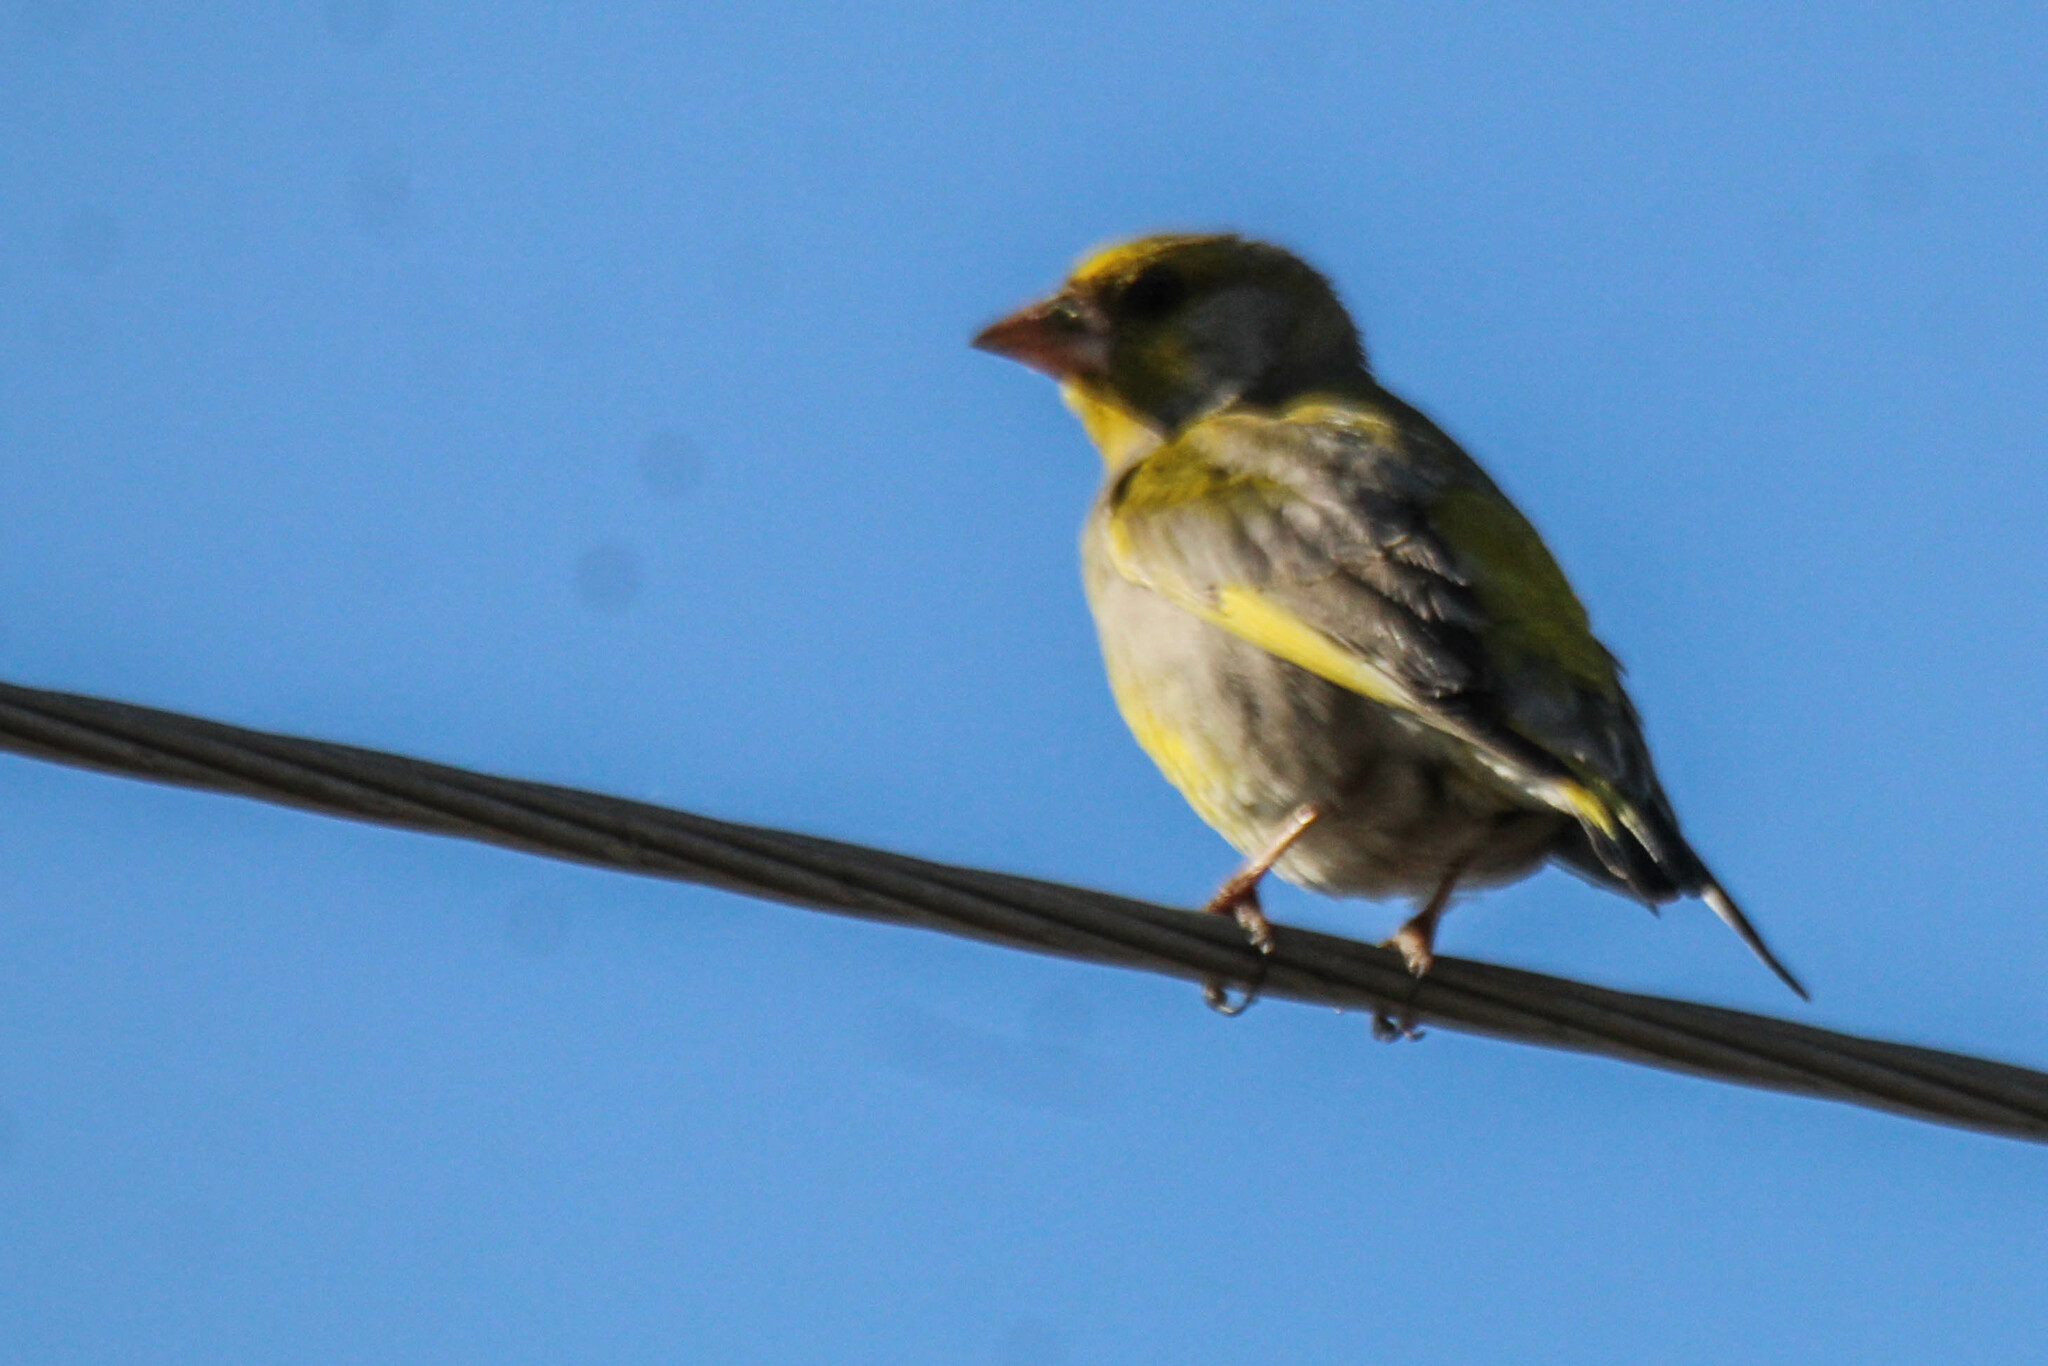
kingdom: Plantae
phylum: Tracheophyta
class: Liliopsida
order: Poales
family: Poaceae
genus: Chloris
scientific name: Chloris chloris
